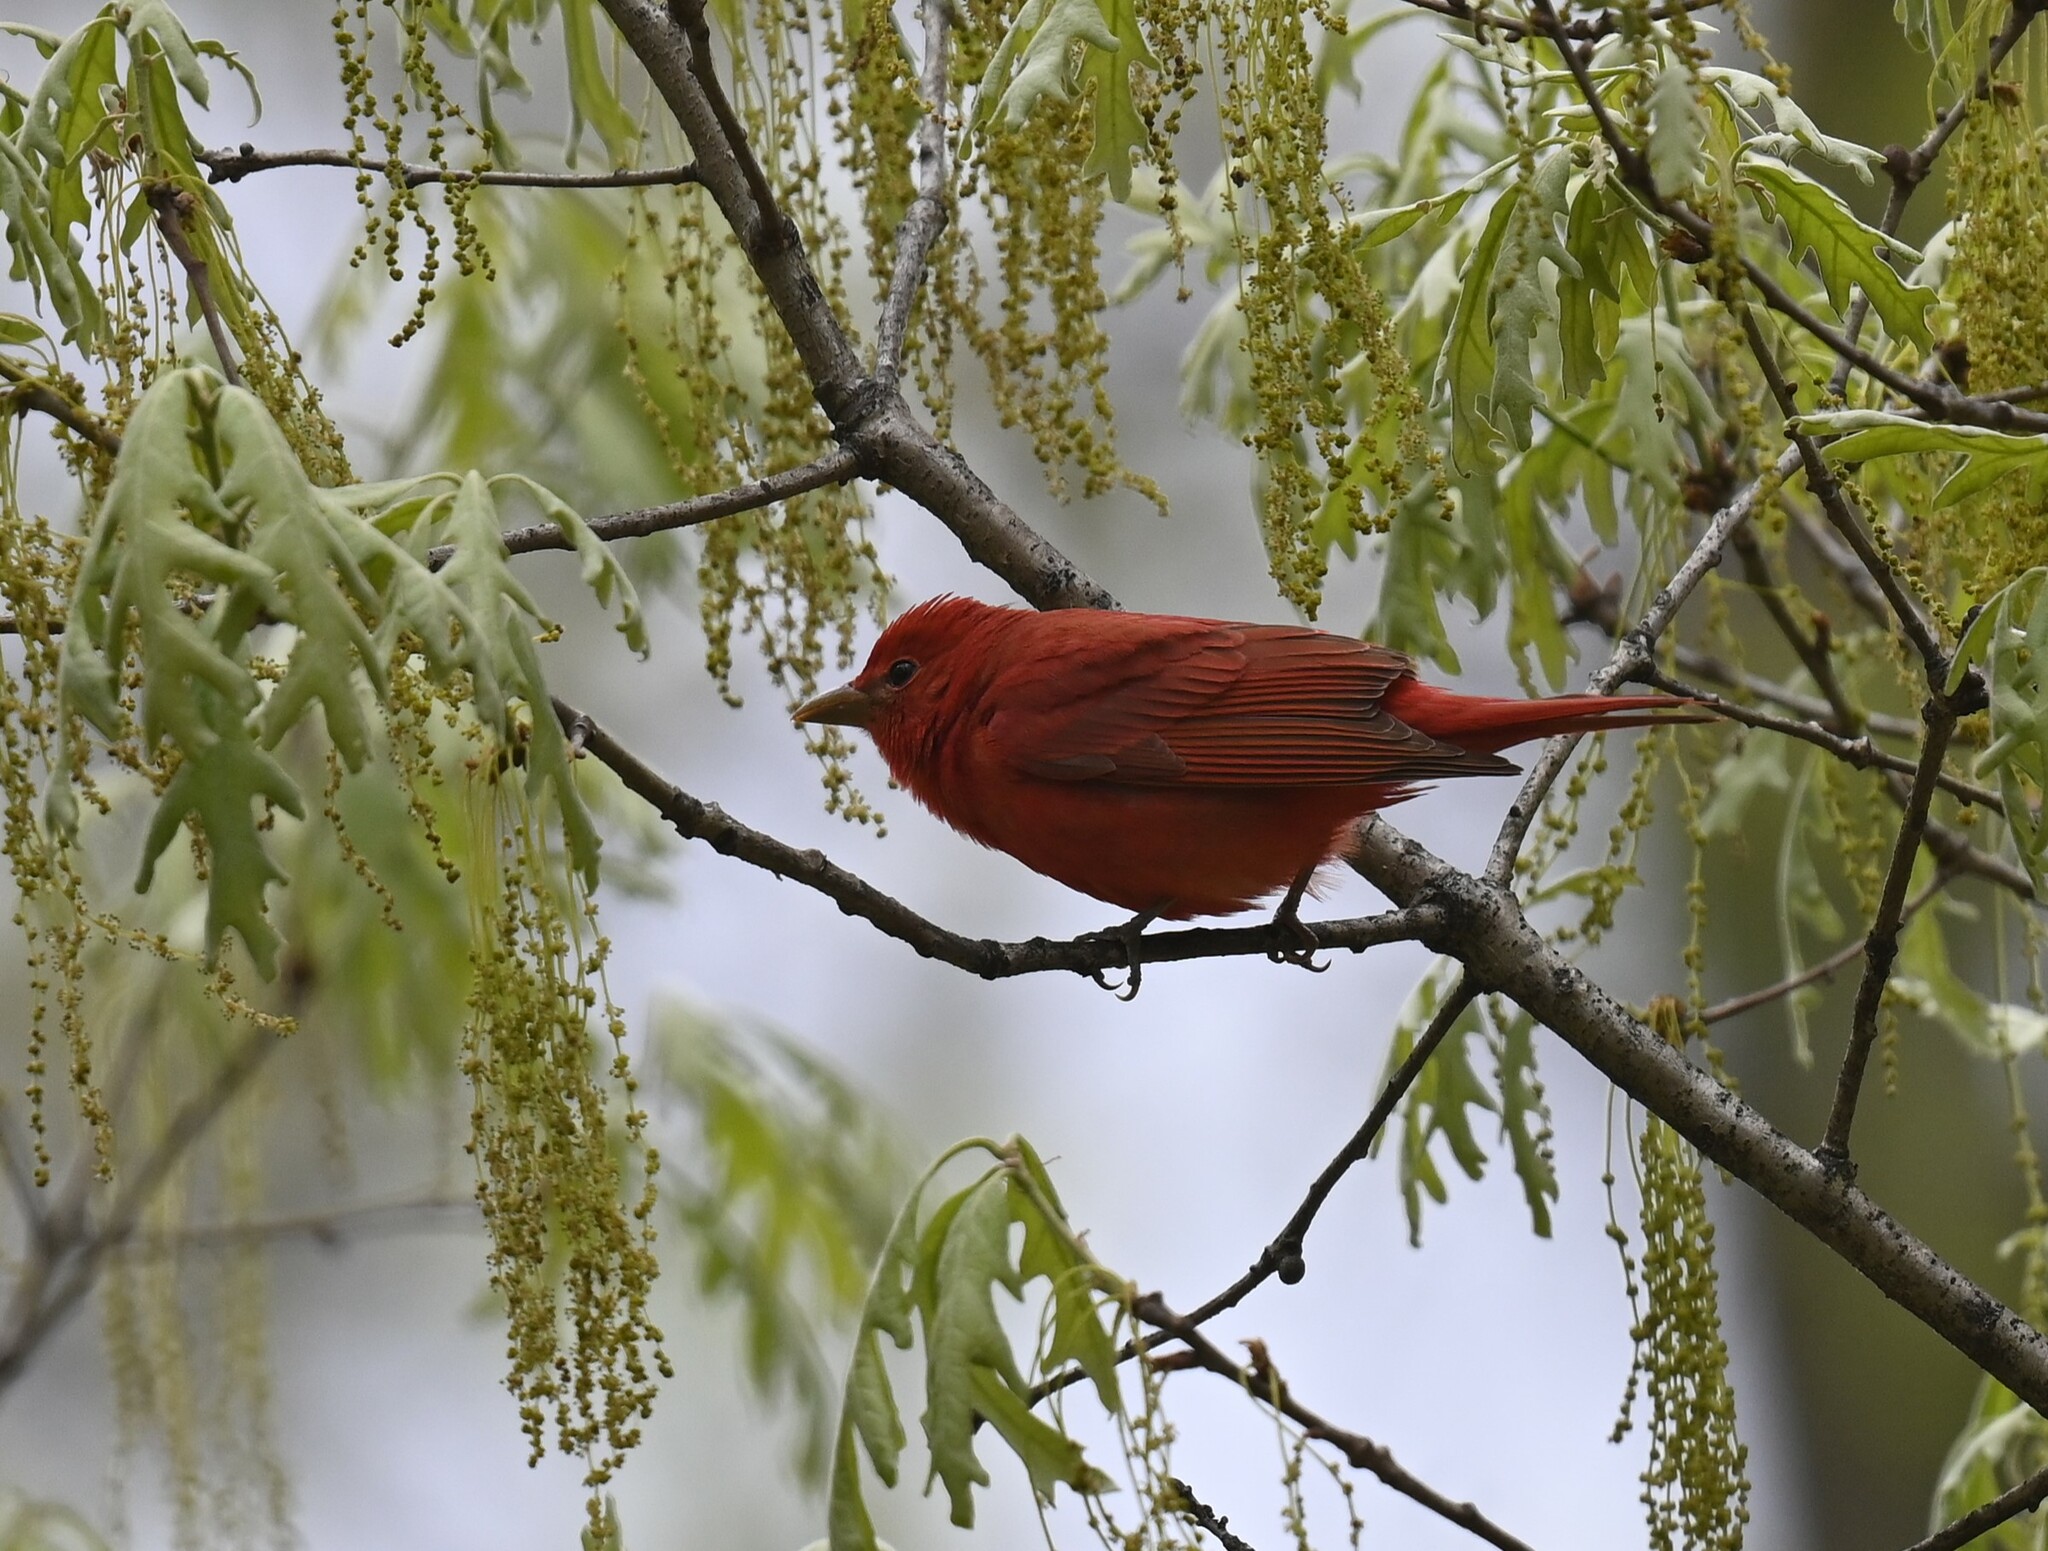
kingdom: Animalia
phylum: Chordata
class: Aves
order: Passeriformes
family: Cardinalidae
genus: Piranga
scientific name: Piranga rubra
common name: Summer tanager
